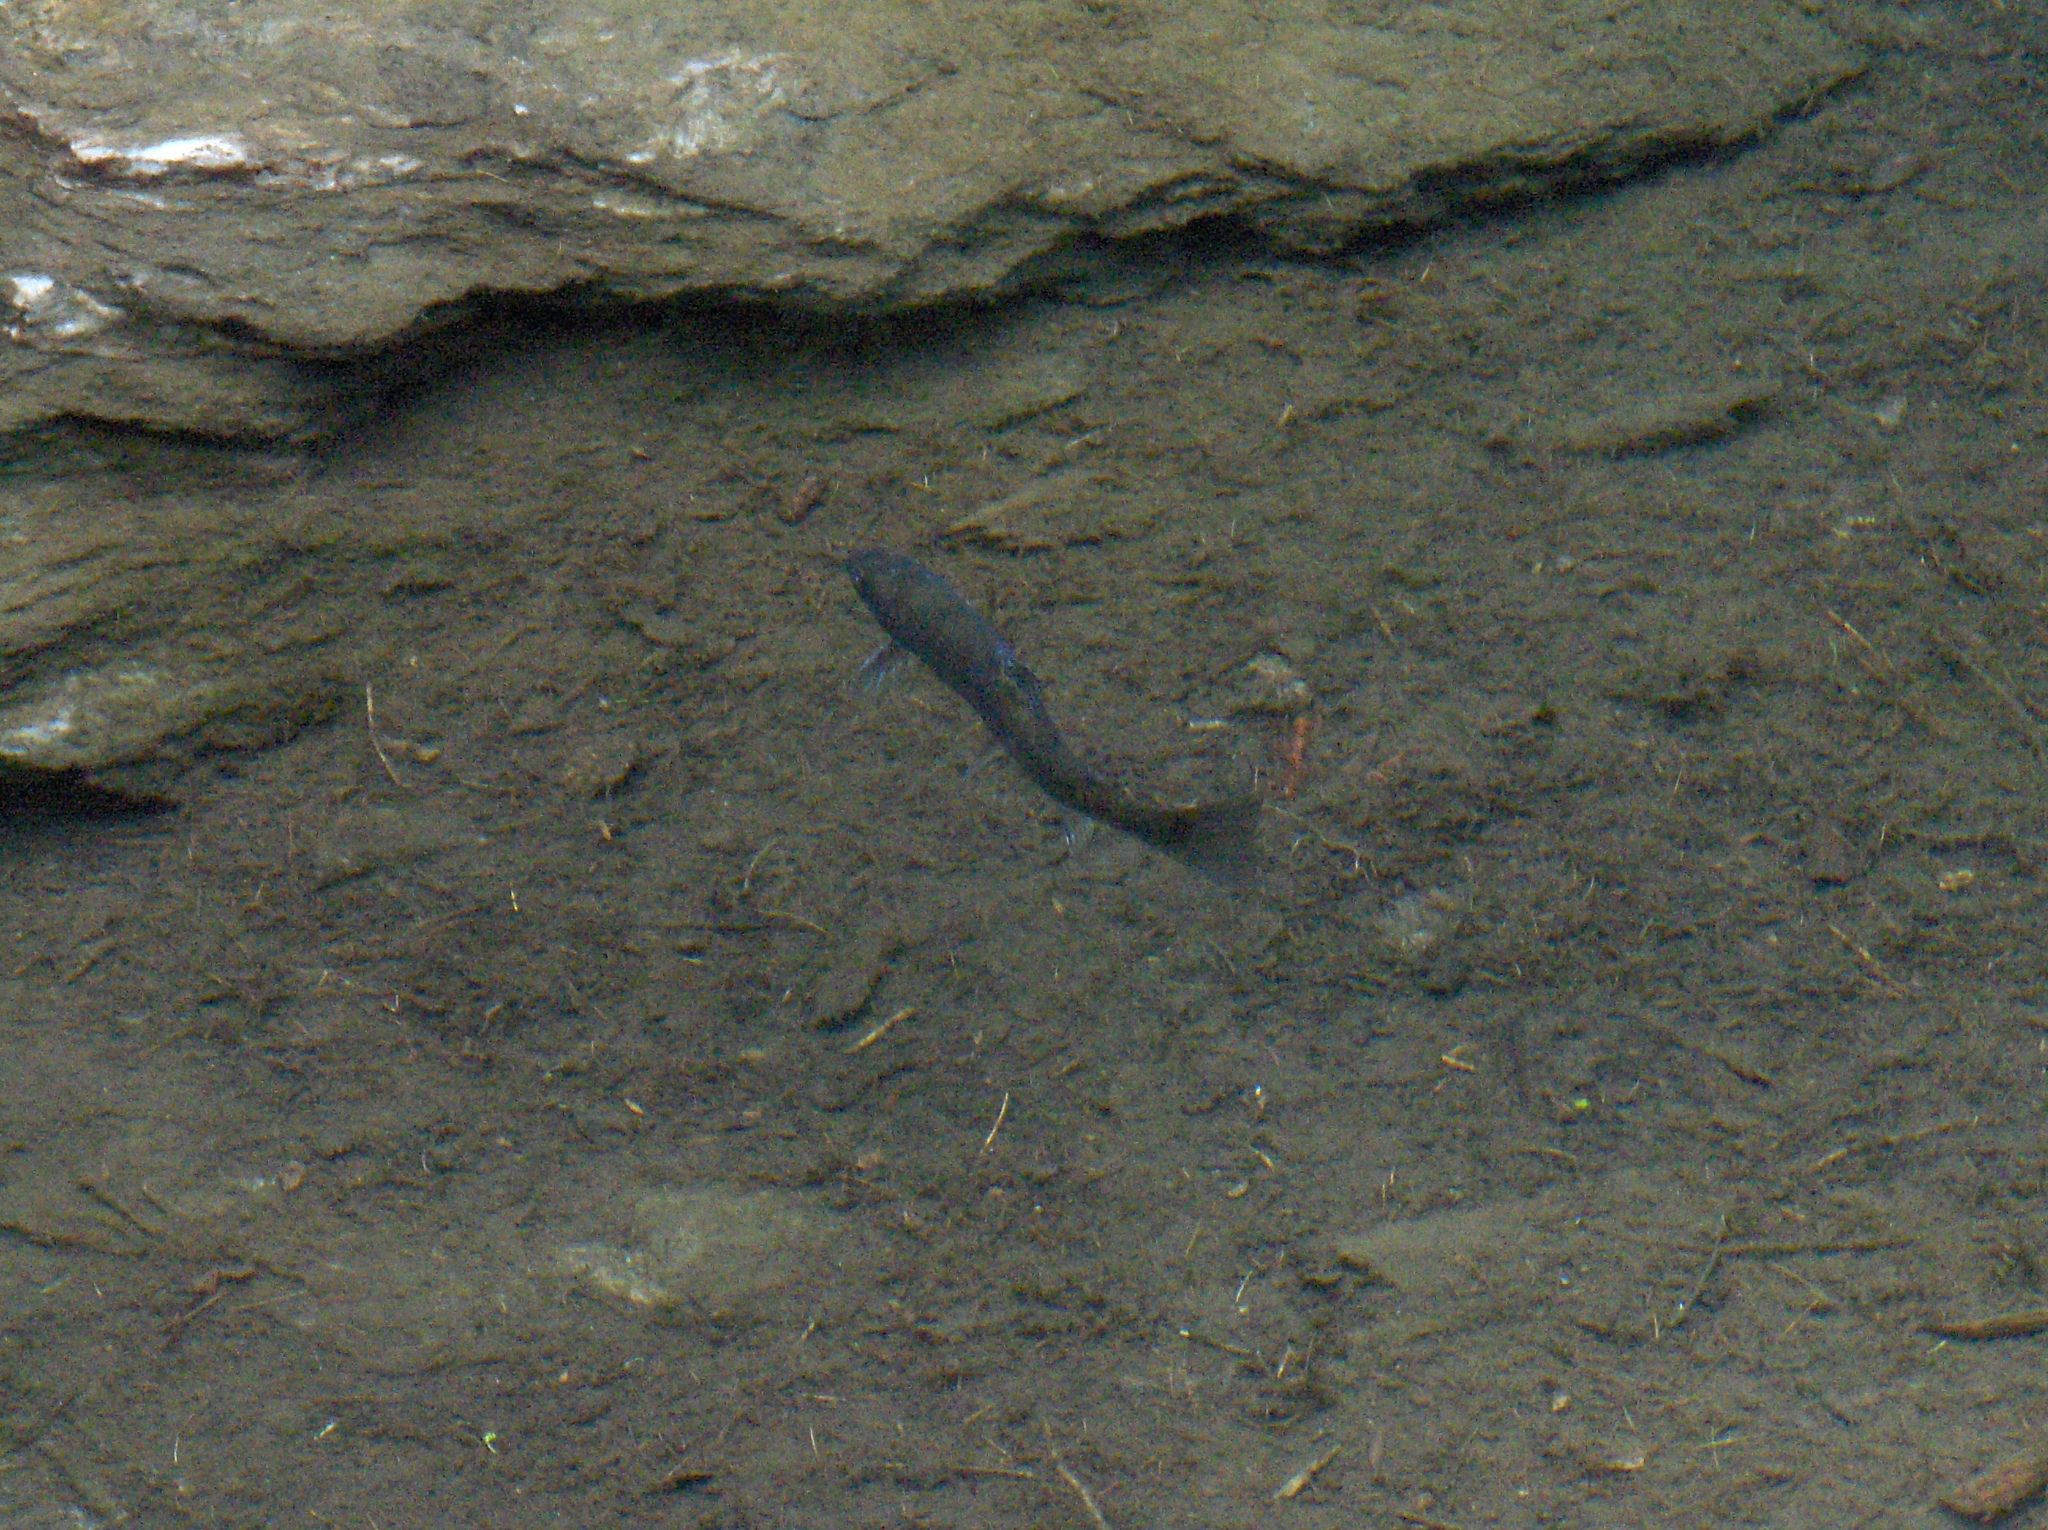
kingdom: Animalia
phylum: Chordata
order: Salmoniformes
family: Salmonidae
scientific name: Salmonidae
